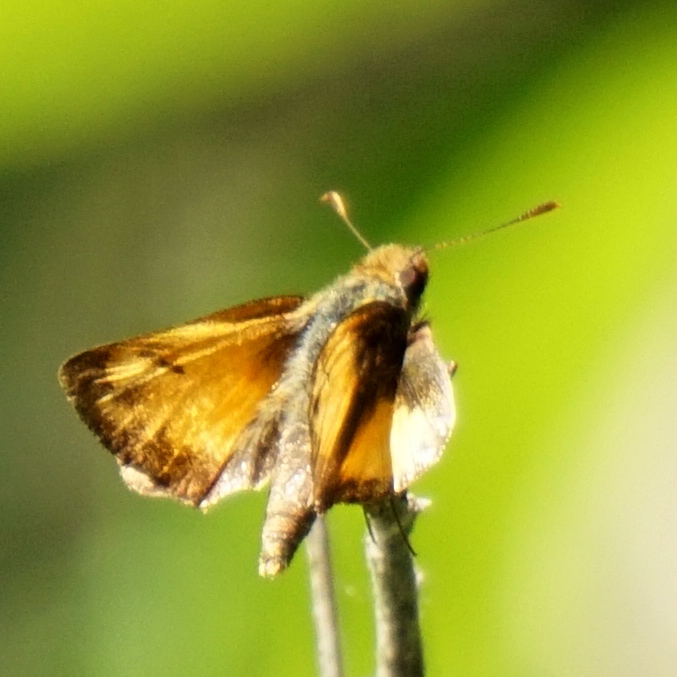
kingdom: Animalia
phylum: Arthropoda
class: Insecta
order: Lepidoptera
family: Hesperiidae
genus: Lon
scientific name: Lon zabulon
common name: Zabulon skipper
